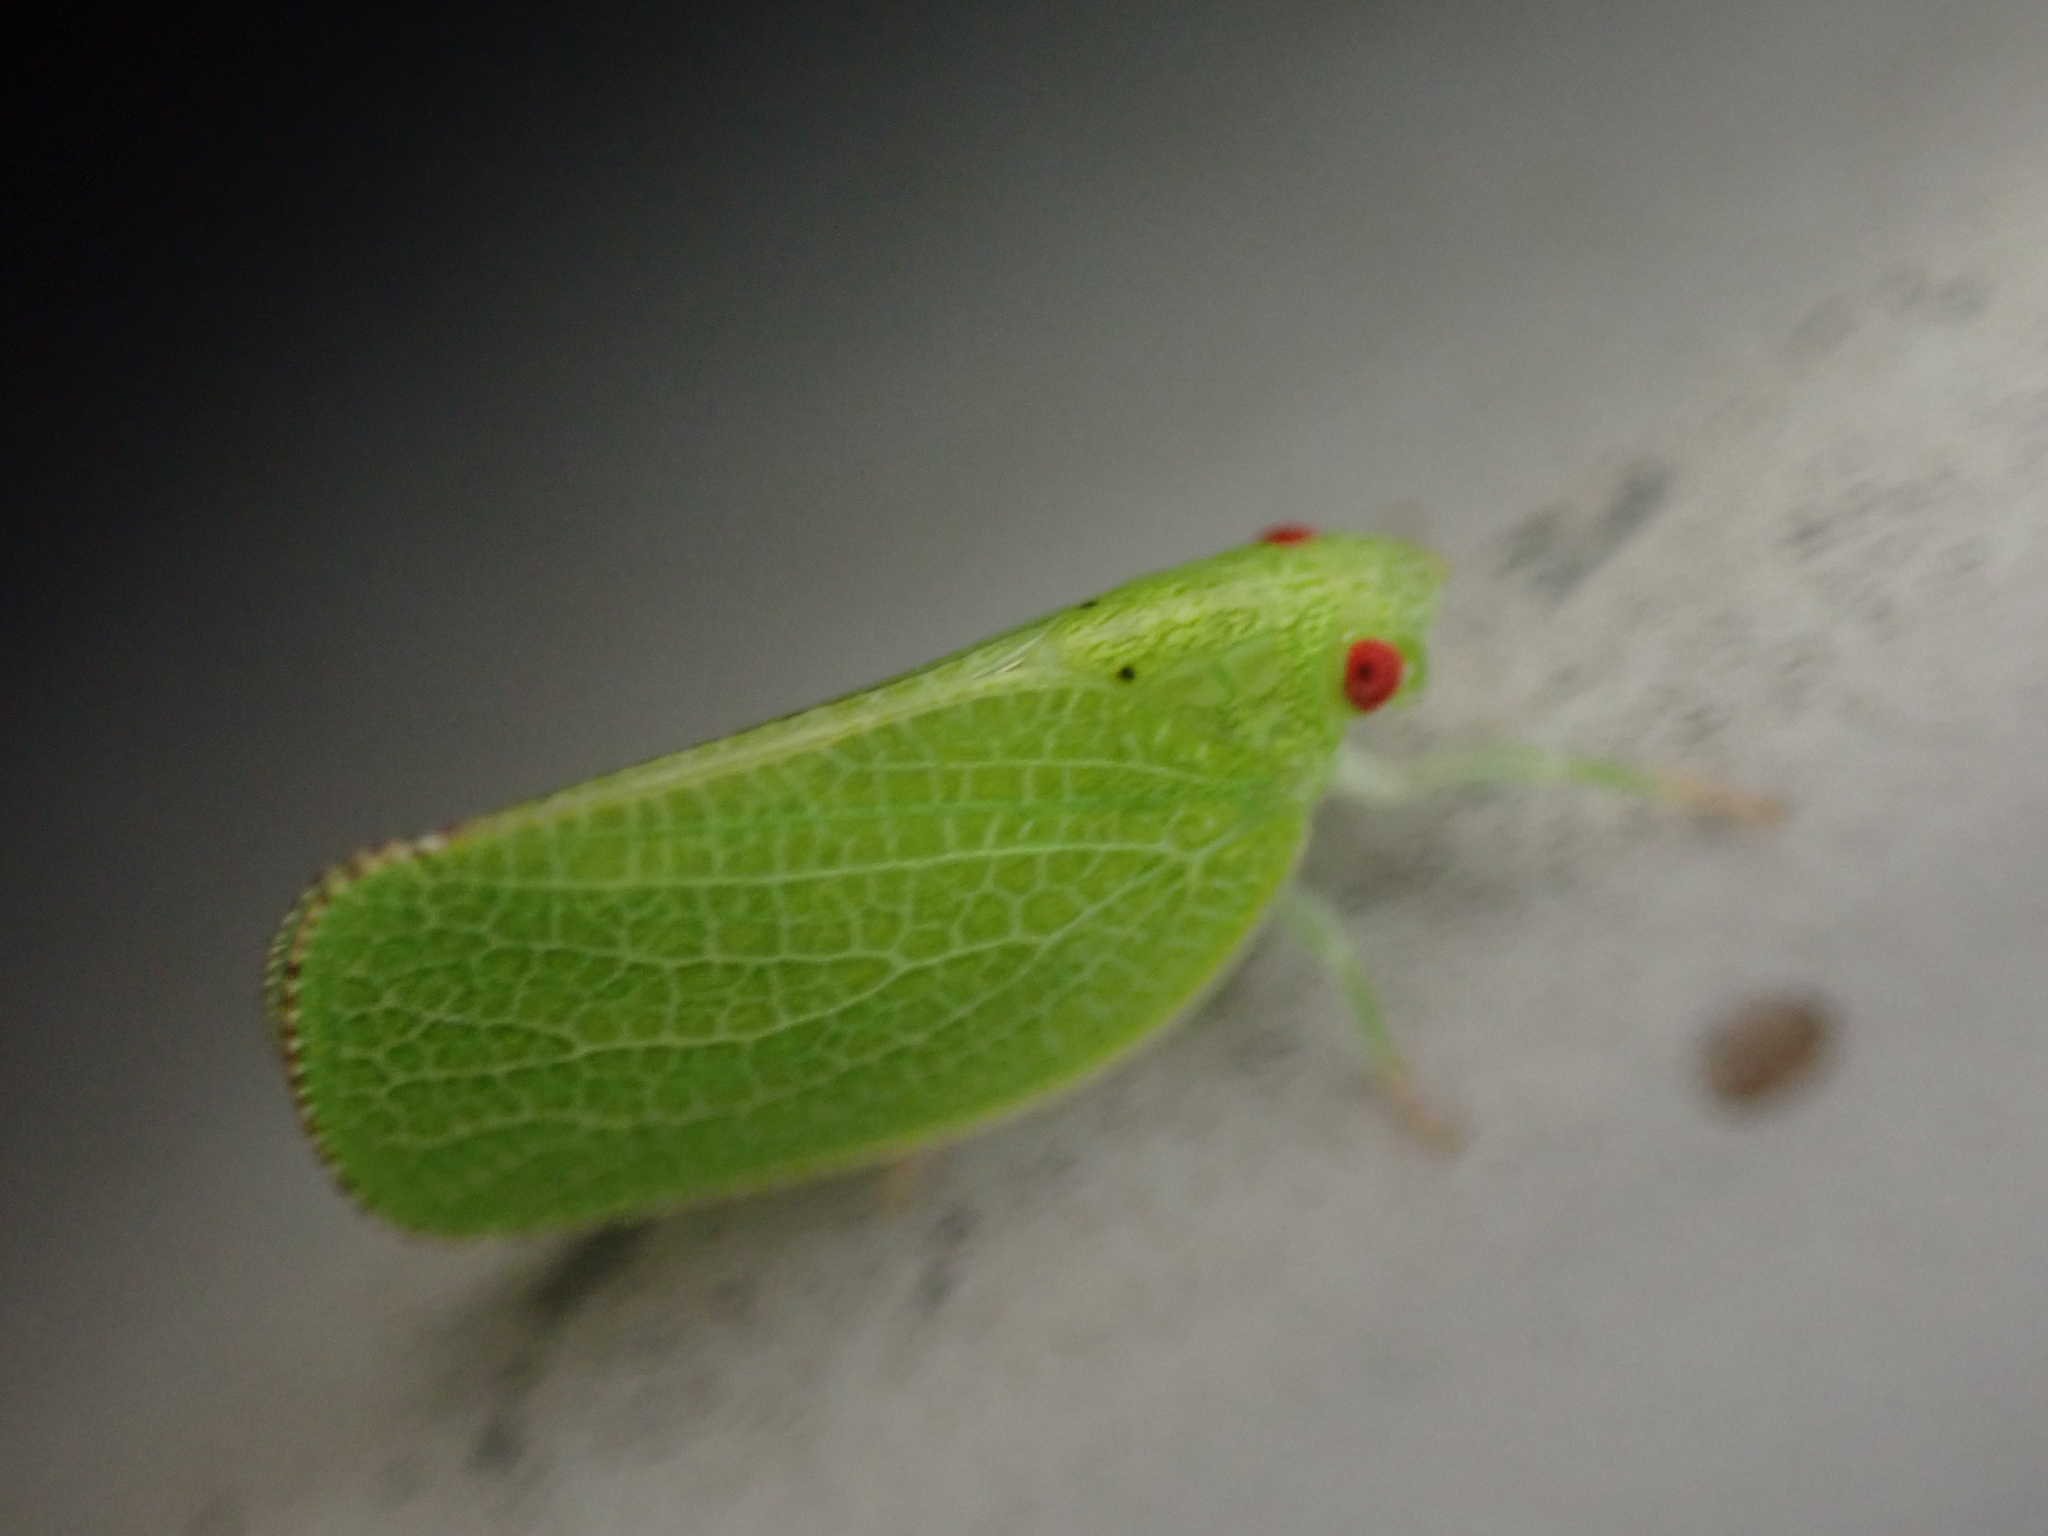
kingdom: Animalia
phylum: Arthropoda
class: Insecta
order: Hemiptera
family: Acanaloniidae
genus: Acanalonia
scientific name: Acanalonia conica
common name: Green cone-headed planthopper
